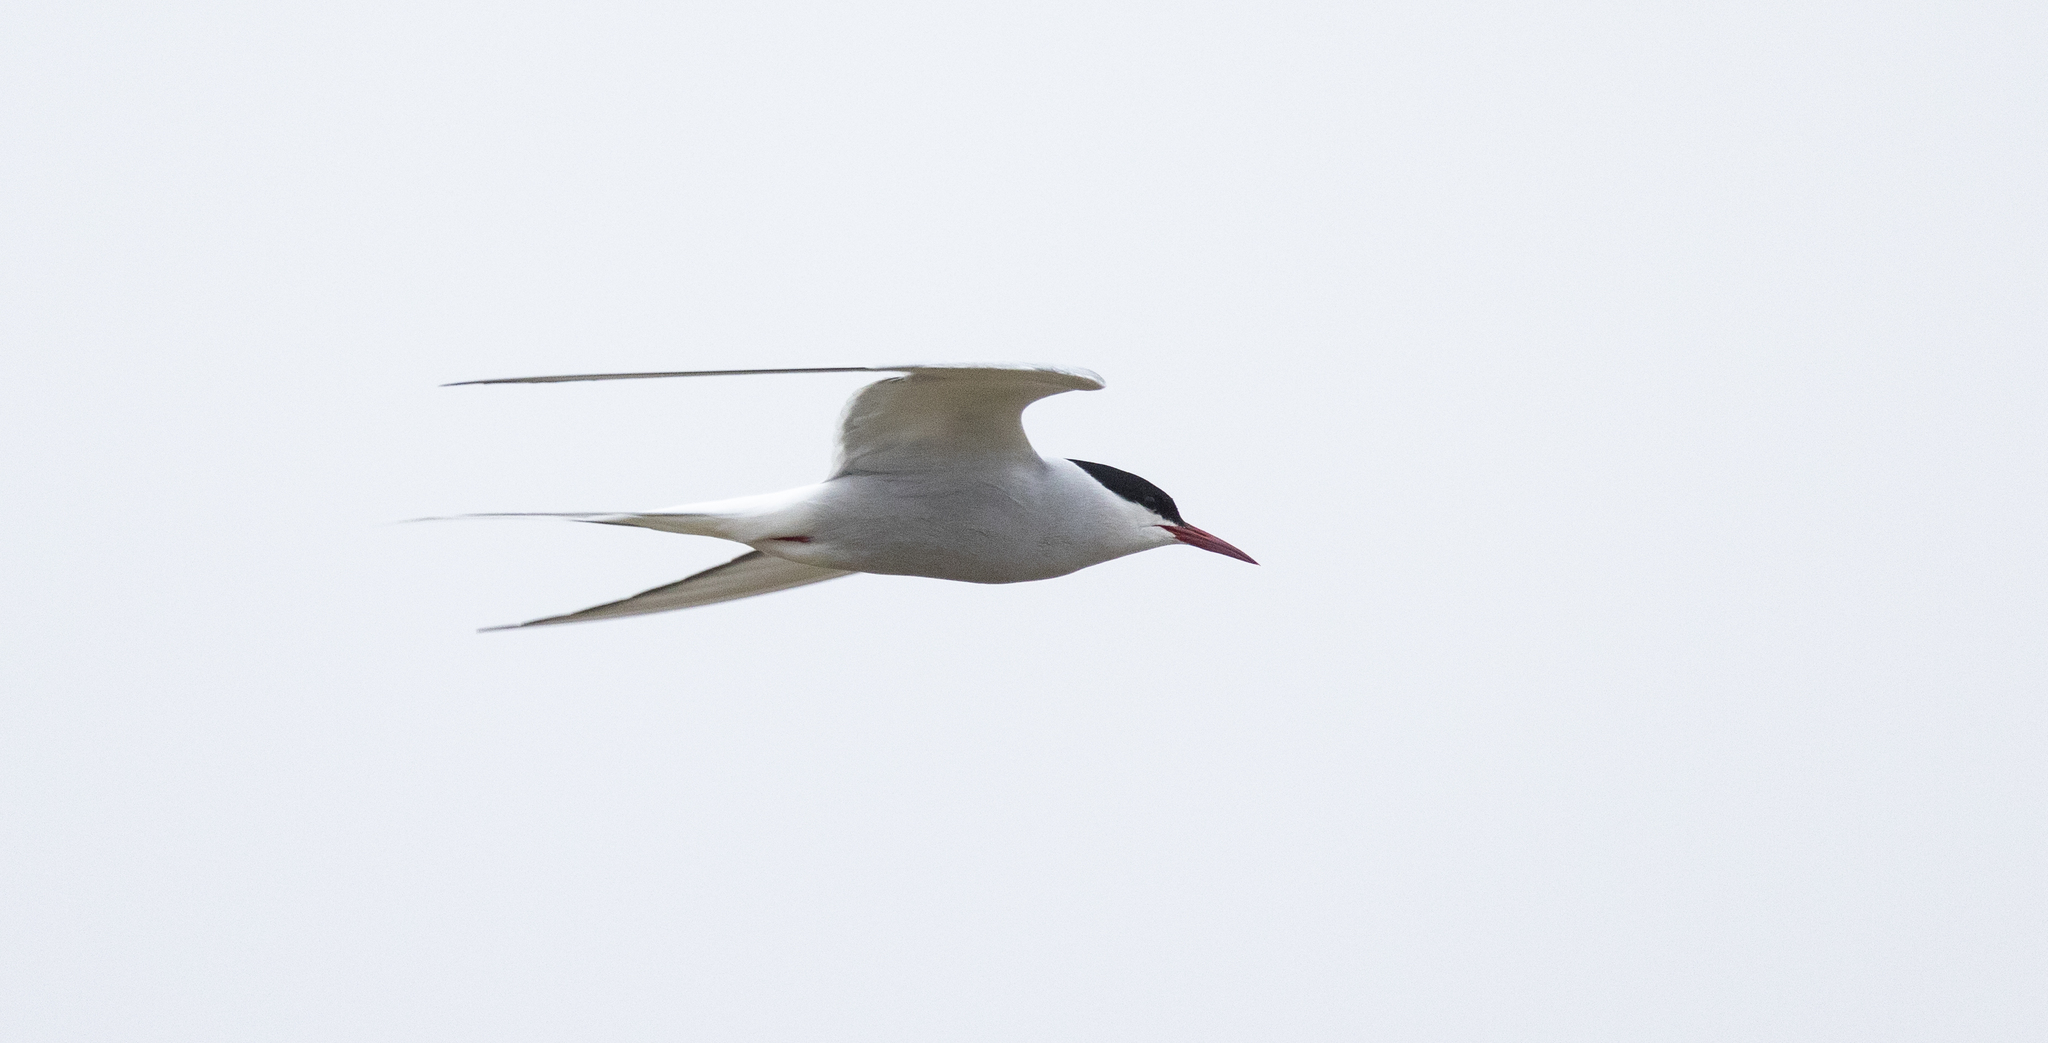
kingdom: Animalia
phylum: Chordata
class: Aves
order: Charadriiformes
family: Laridae
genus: Sterna
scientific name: Sterna paradisaea
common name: Arctic tern
